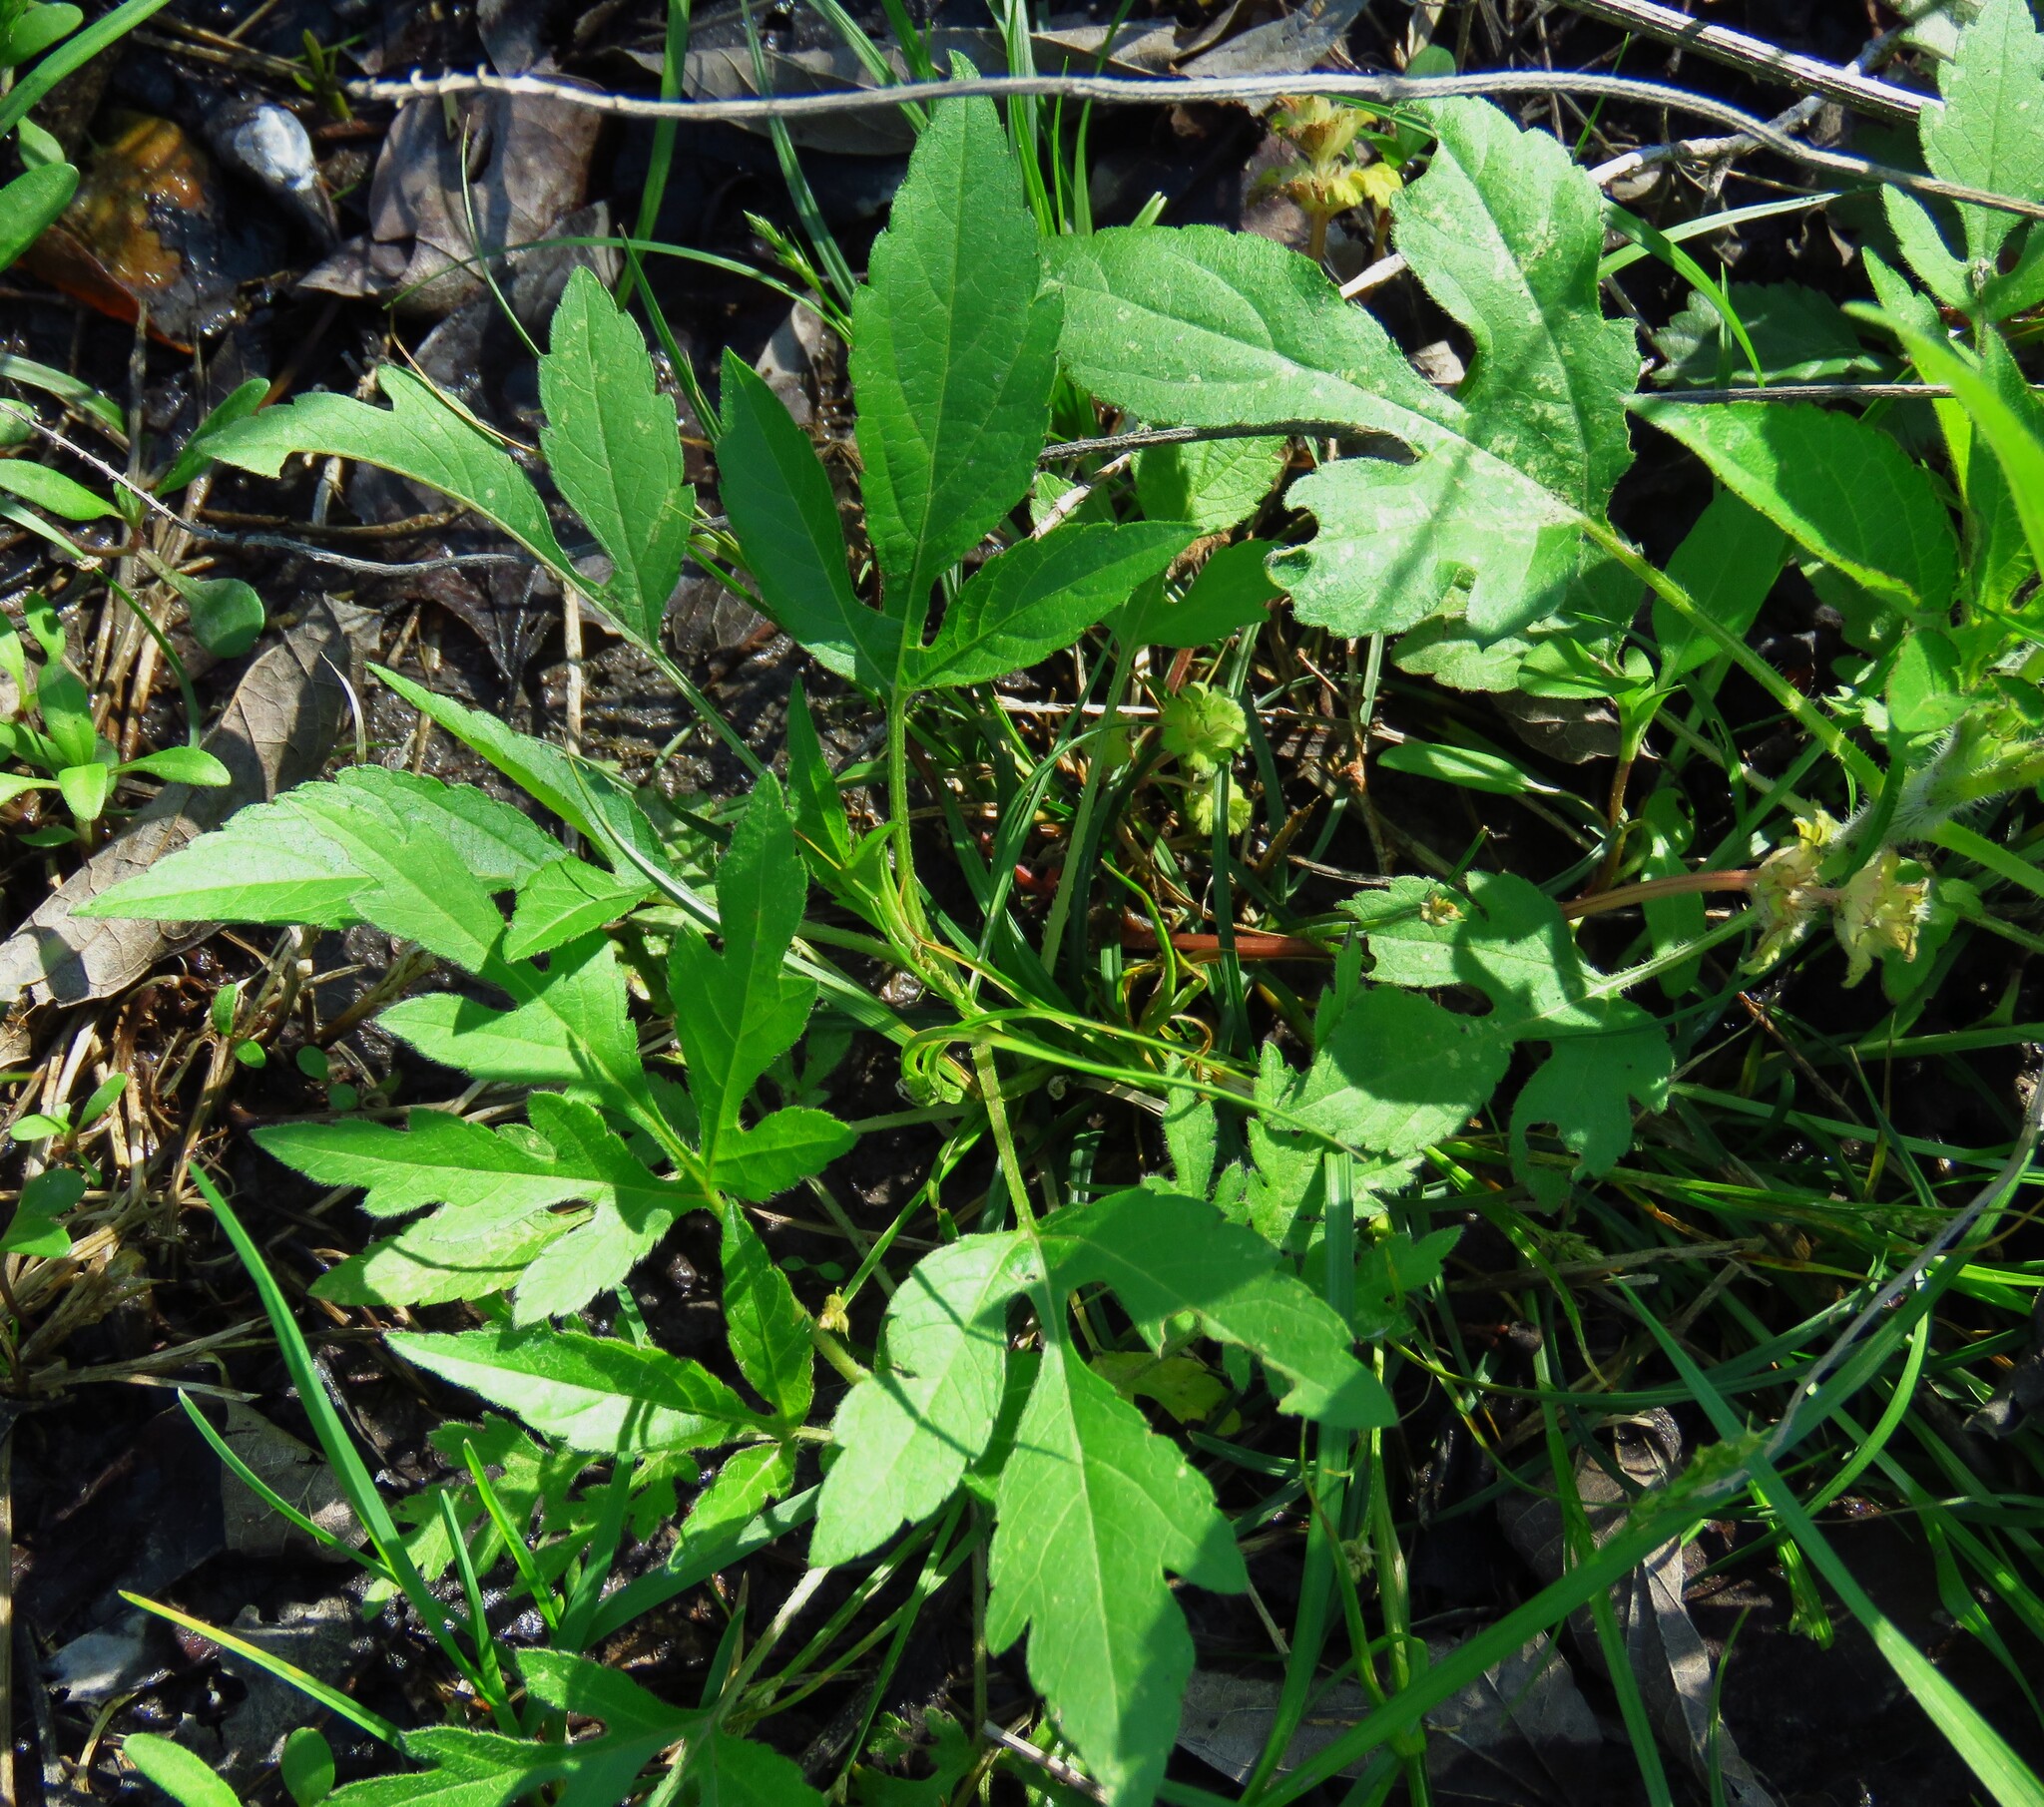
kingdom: Plantae
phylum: Tracheophyta
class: Magnoliopsida
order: Asterales
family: Asteraceae
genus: Ambrosia
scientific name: Ambrosia trifida
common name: Giant ragweed
